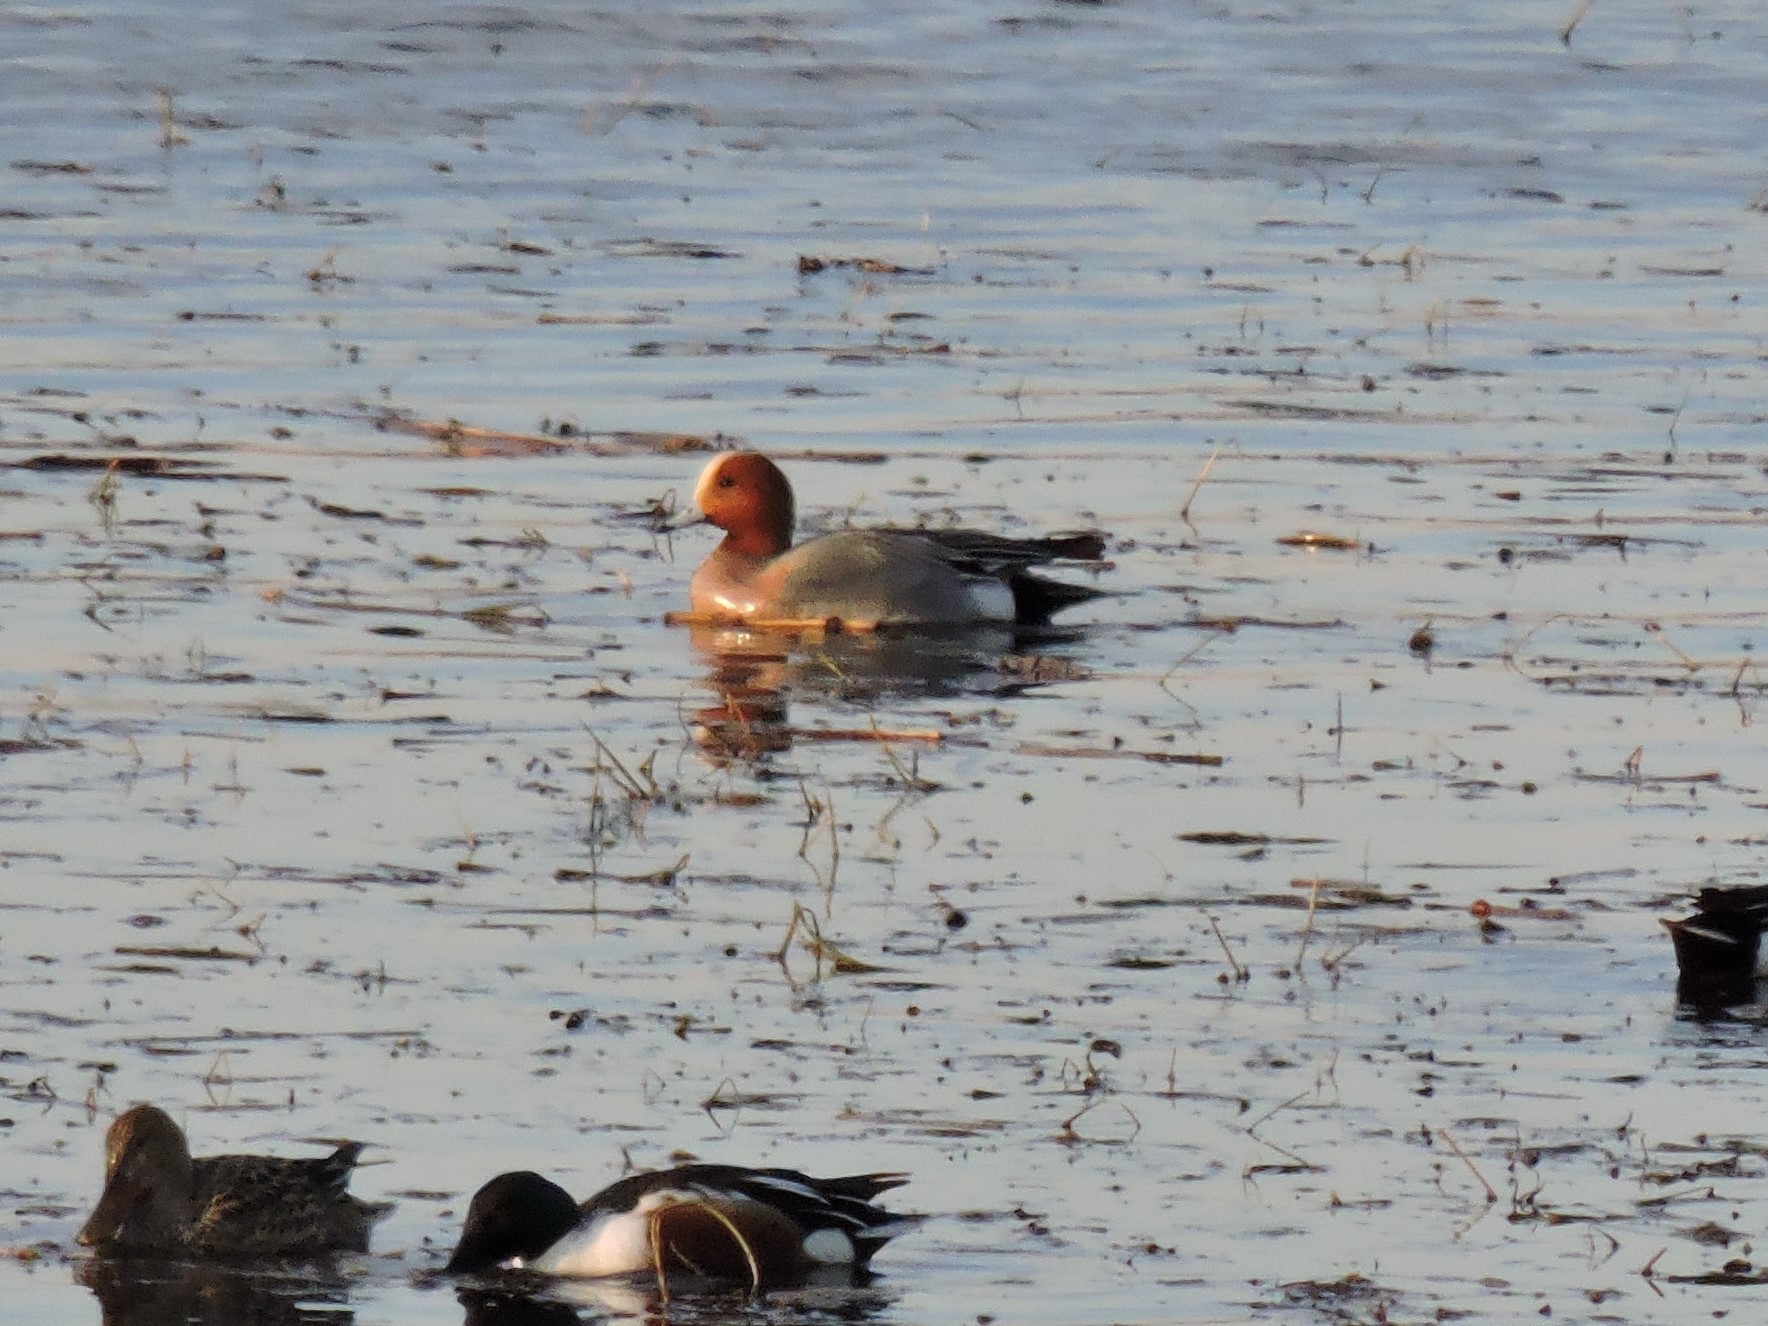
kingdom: Animalia
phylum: Chordata
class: Aves
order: Anseriformes
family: Anatidae
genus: Mareca
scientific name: Mareca penelope
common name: Eurasian wigeon
